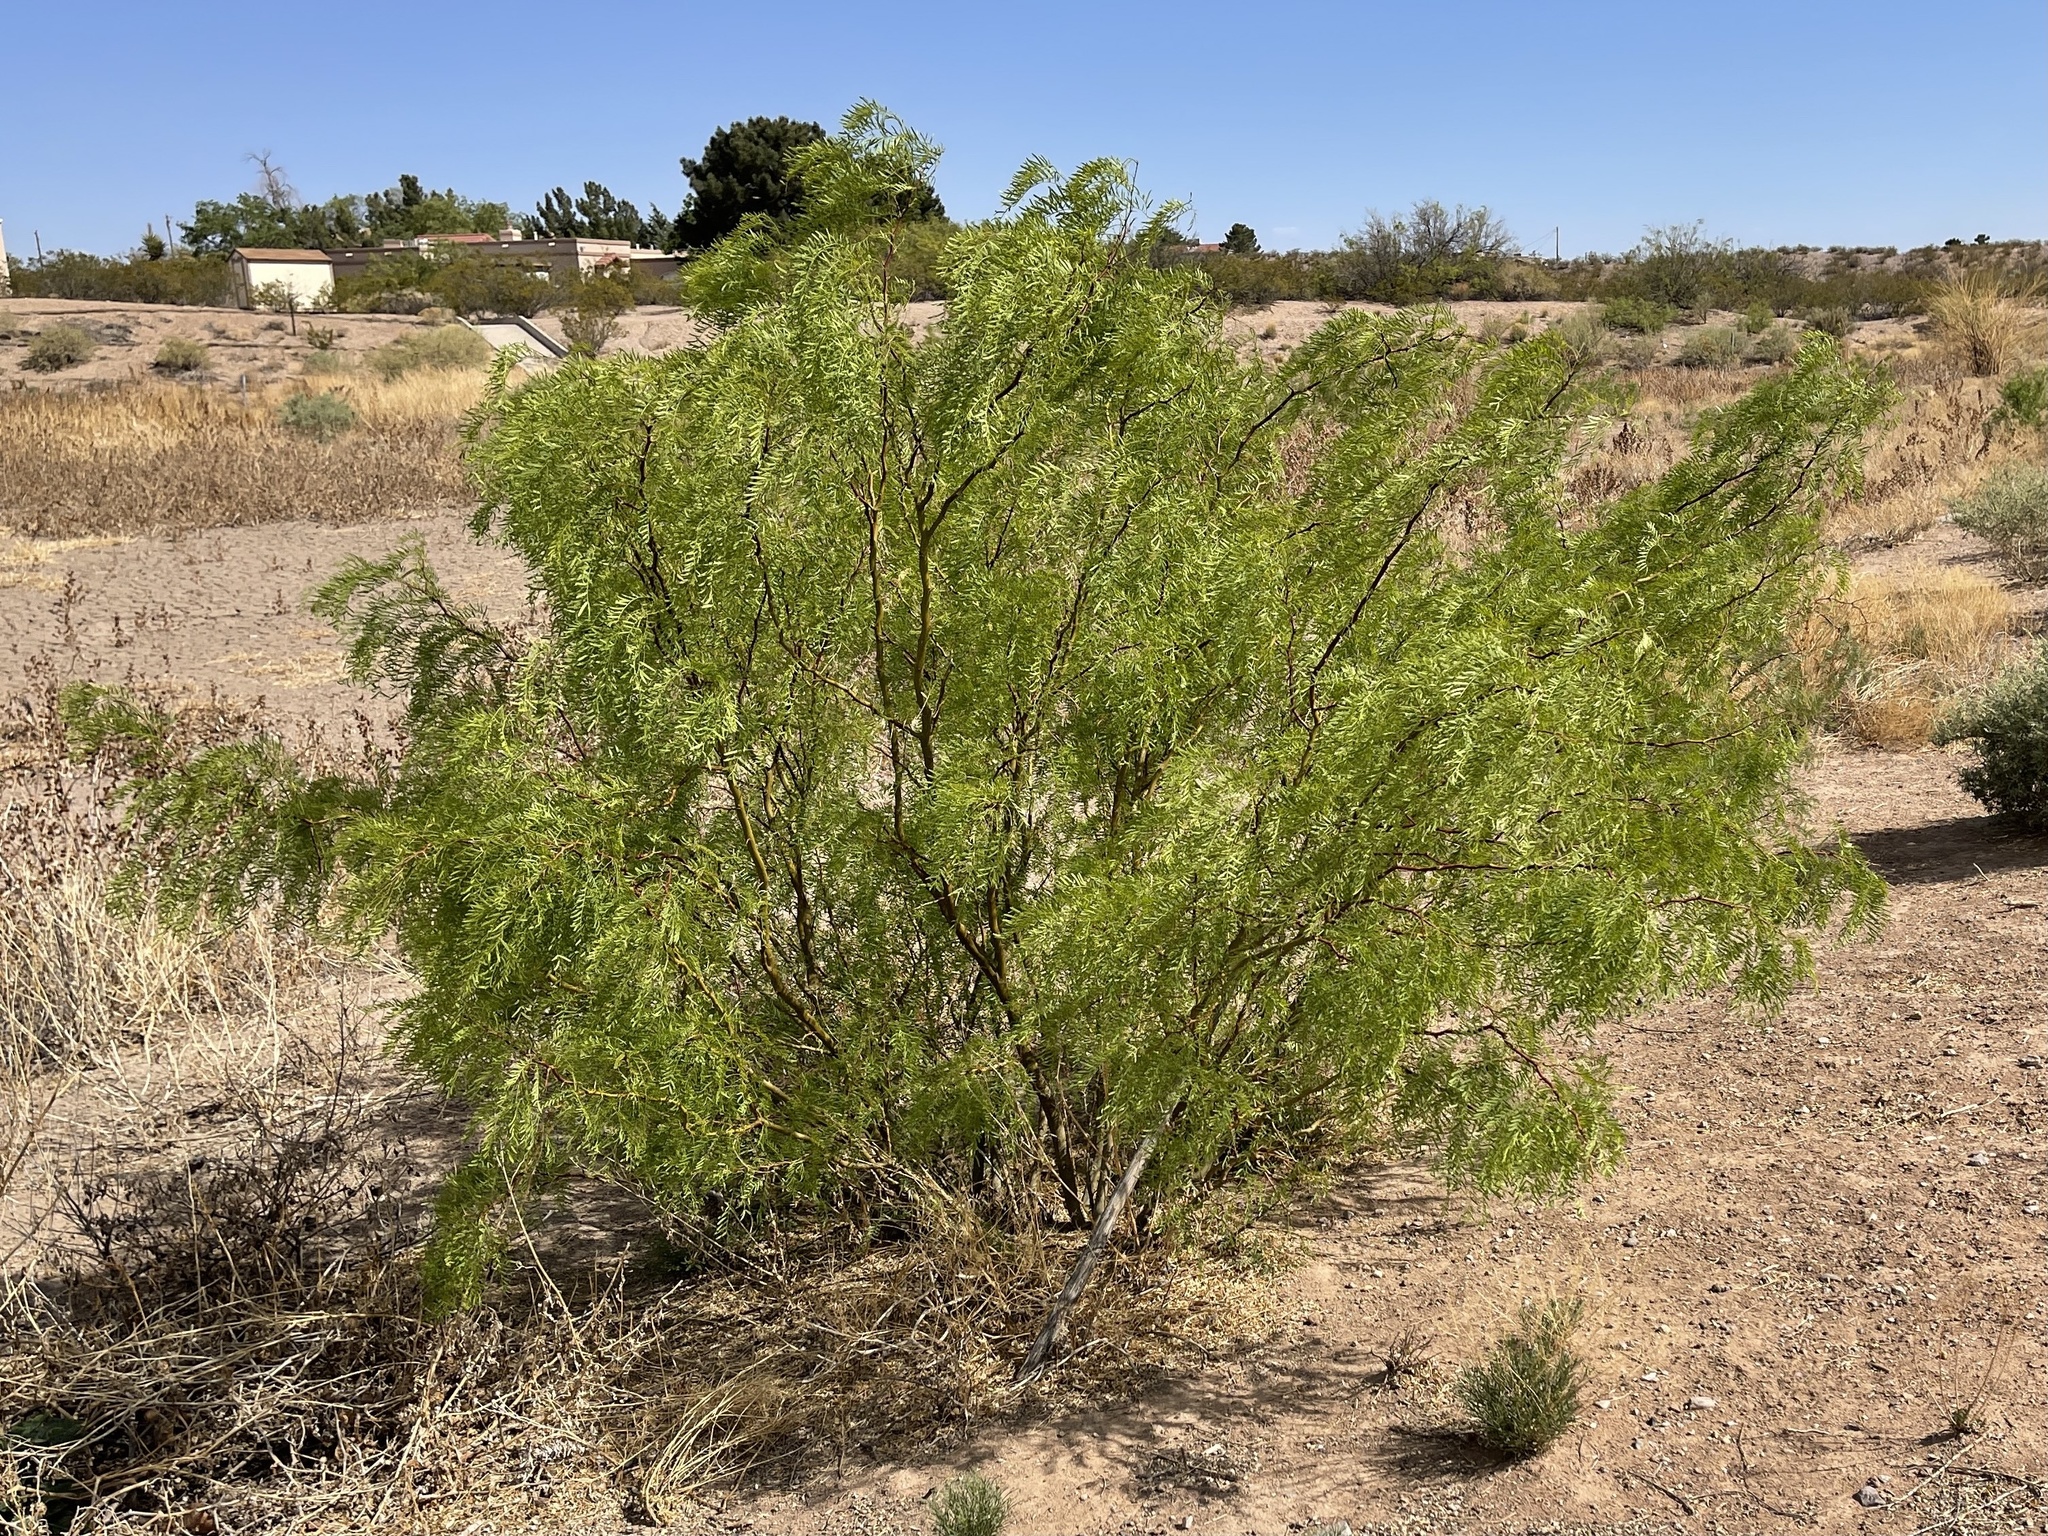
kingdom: Plantae
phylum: Tracheophyta
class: Magnoliopsida
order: Fabales
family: Fabaceae
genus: Prosopis
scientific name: Prosopis glandulosa
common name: Honey mesquite
